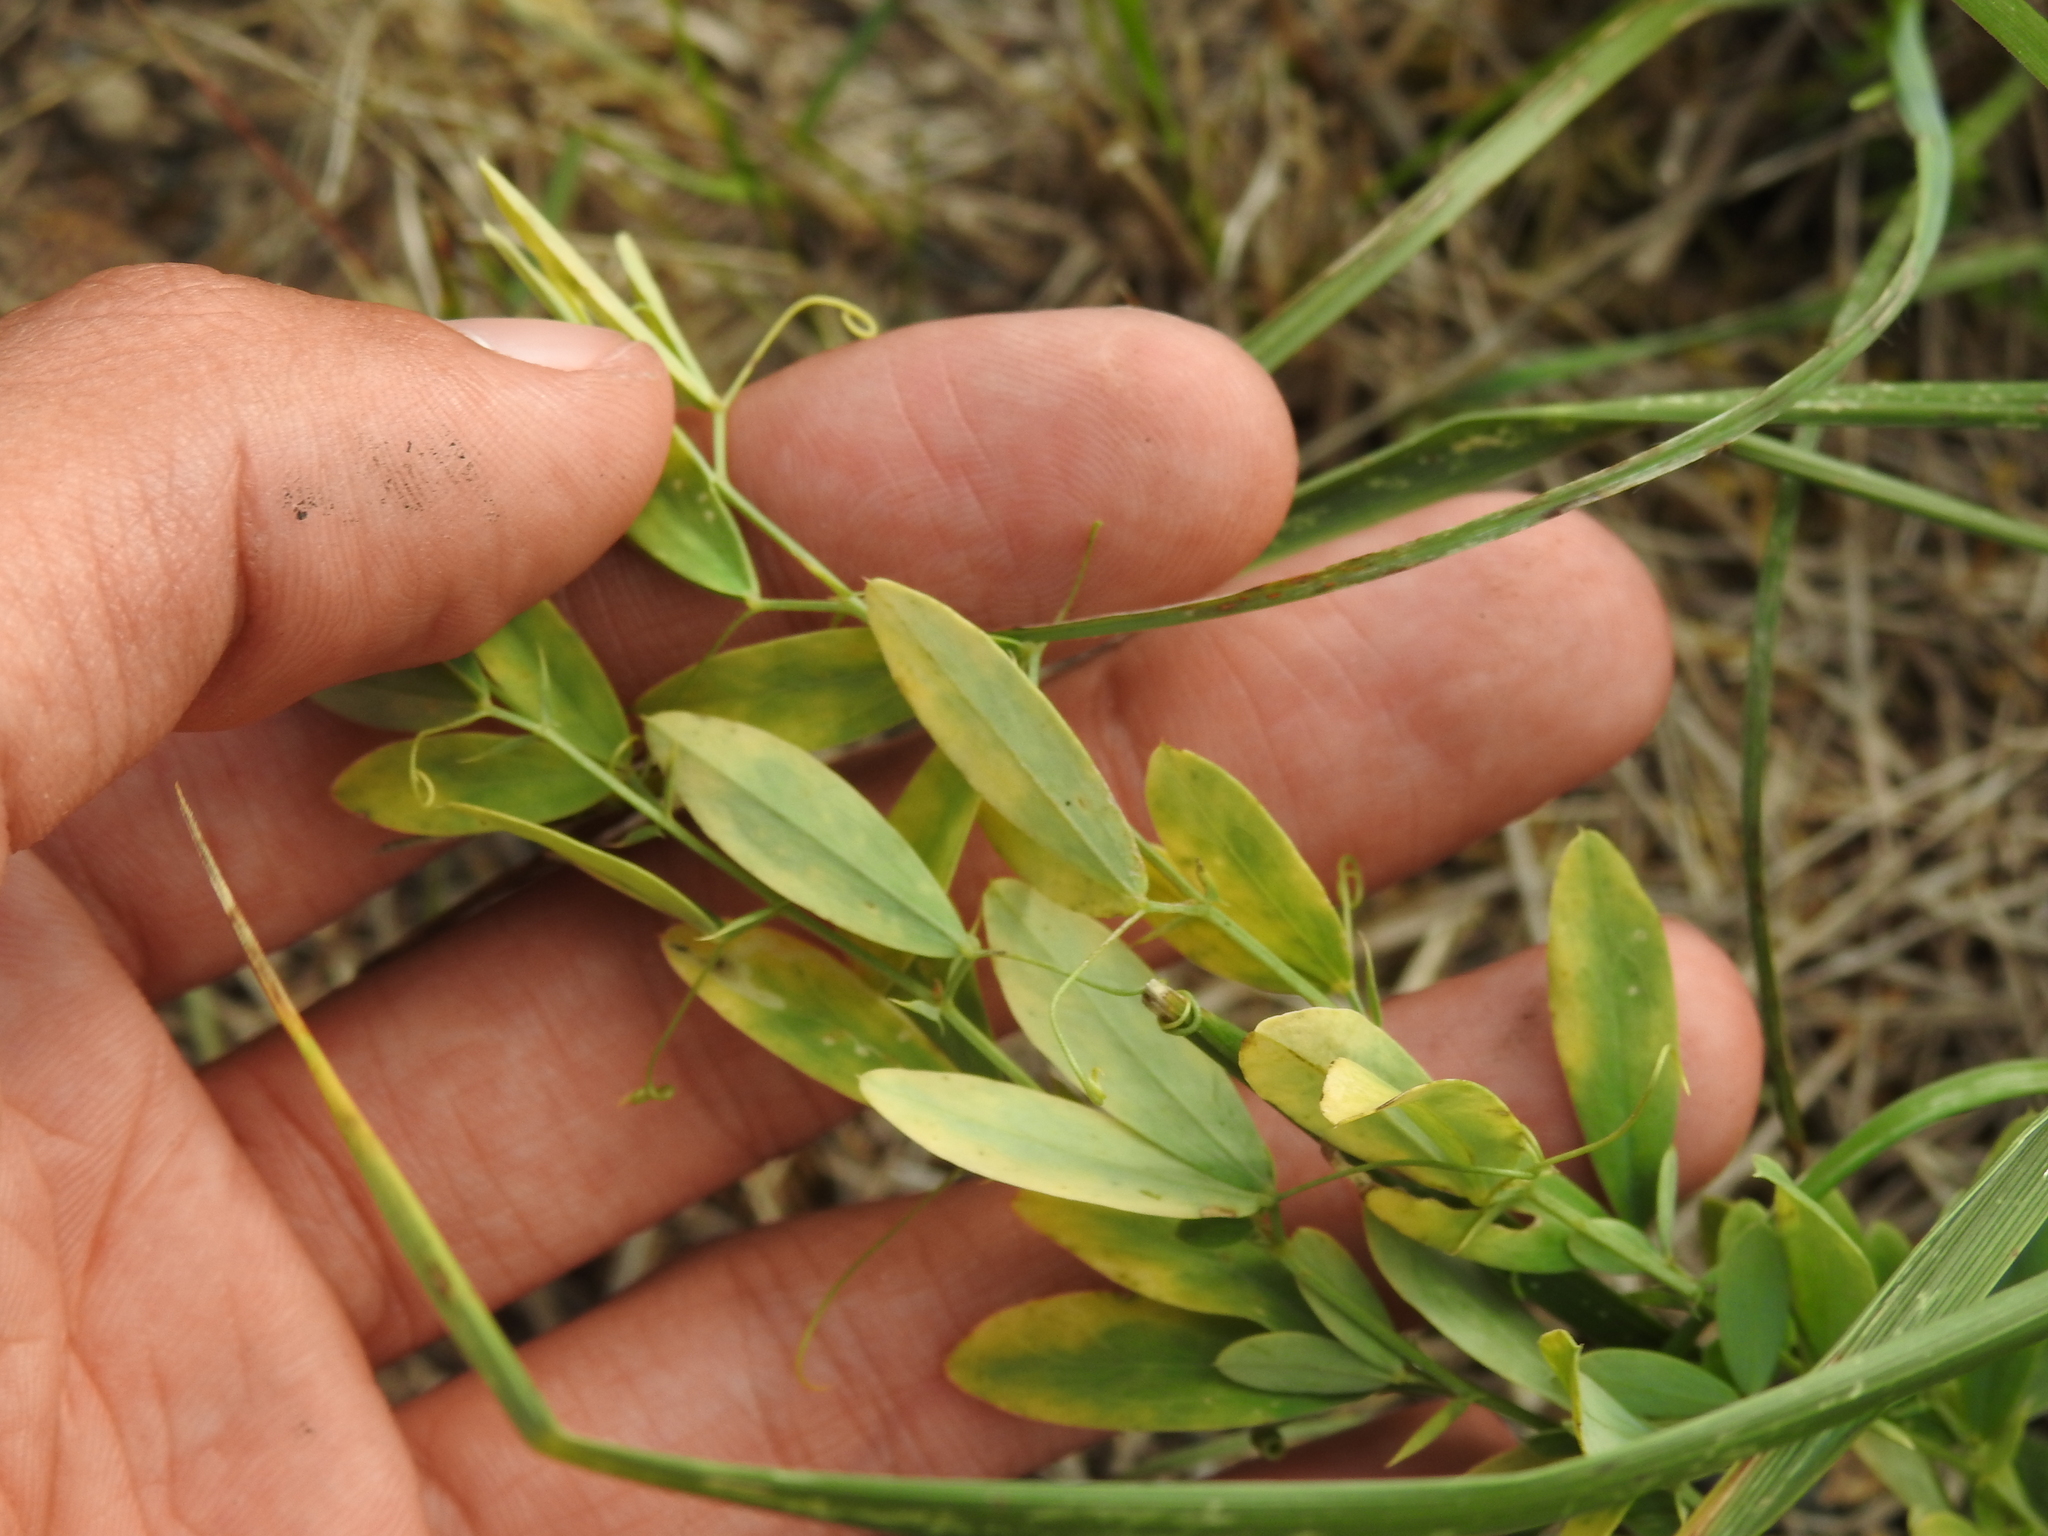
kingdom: Plantae
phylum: Tracheophyta
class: Magnoliopsida
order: Fabales
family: Fabaceae
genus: Lathyrus
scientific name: Lathyrus tuberosus
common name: Tuberous pea
